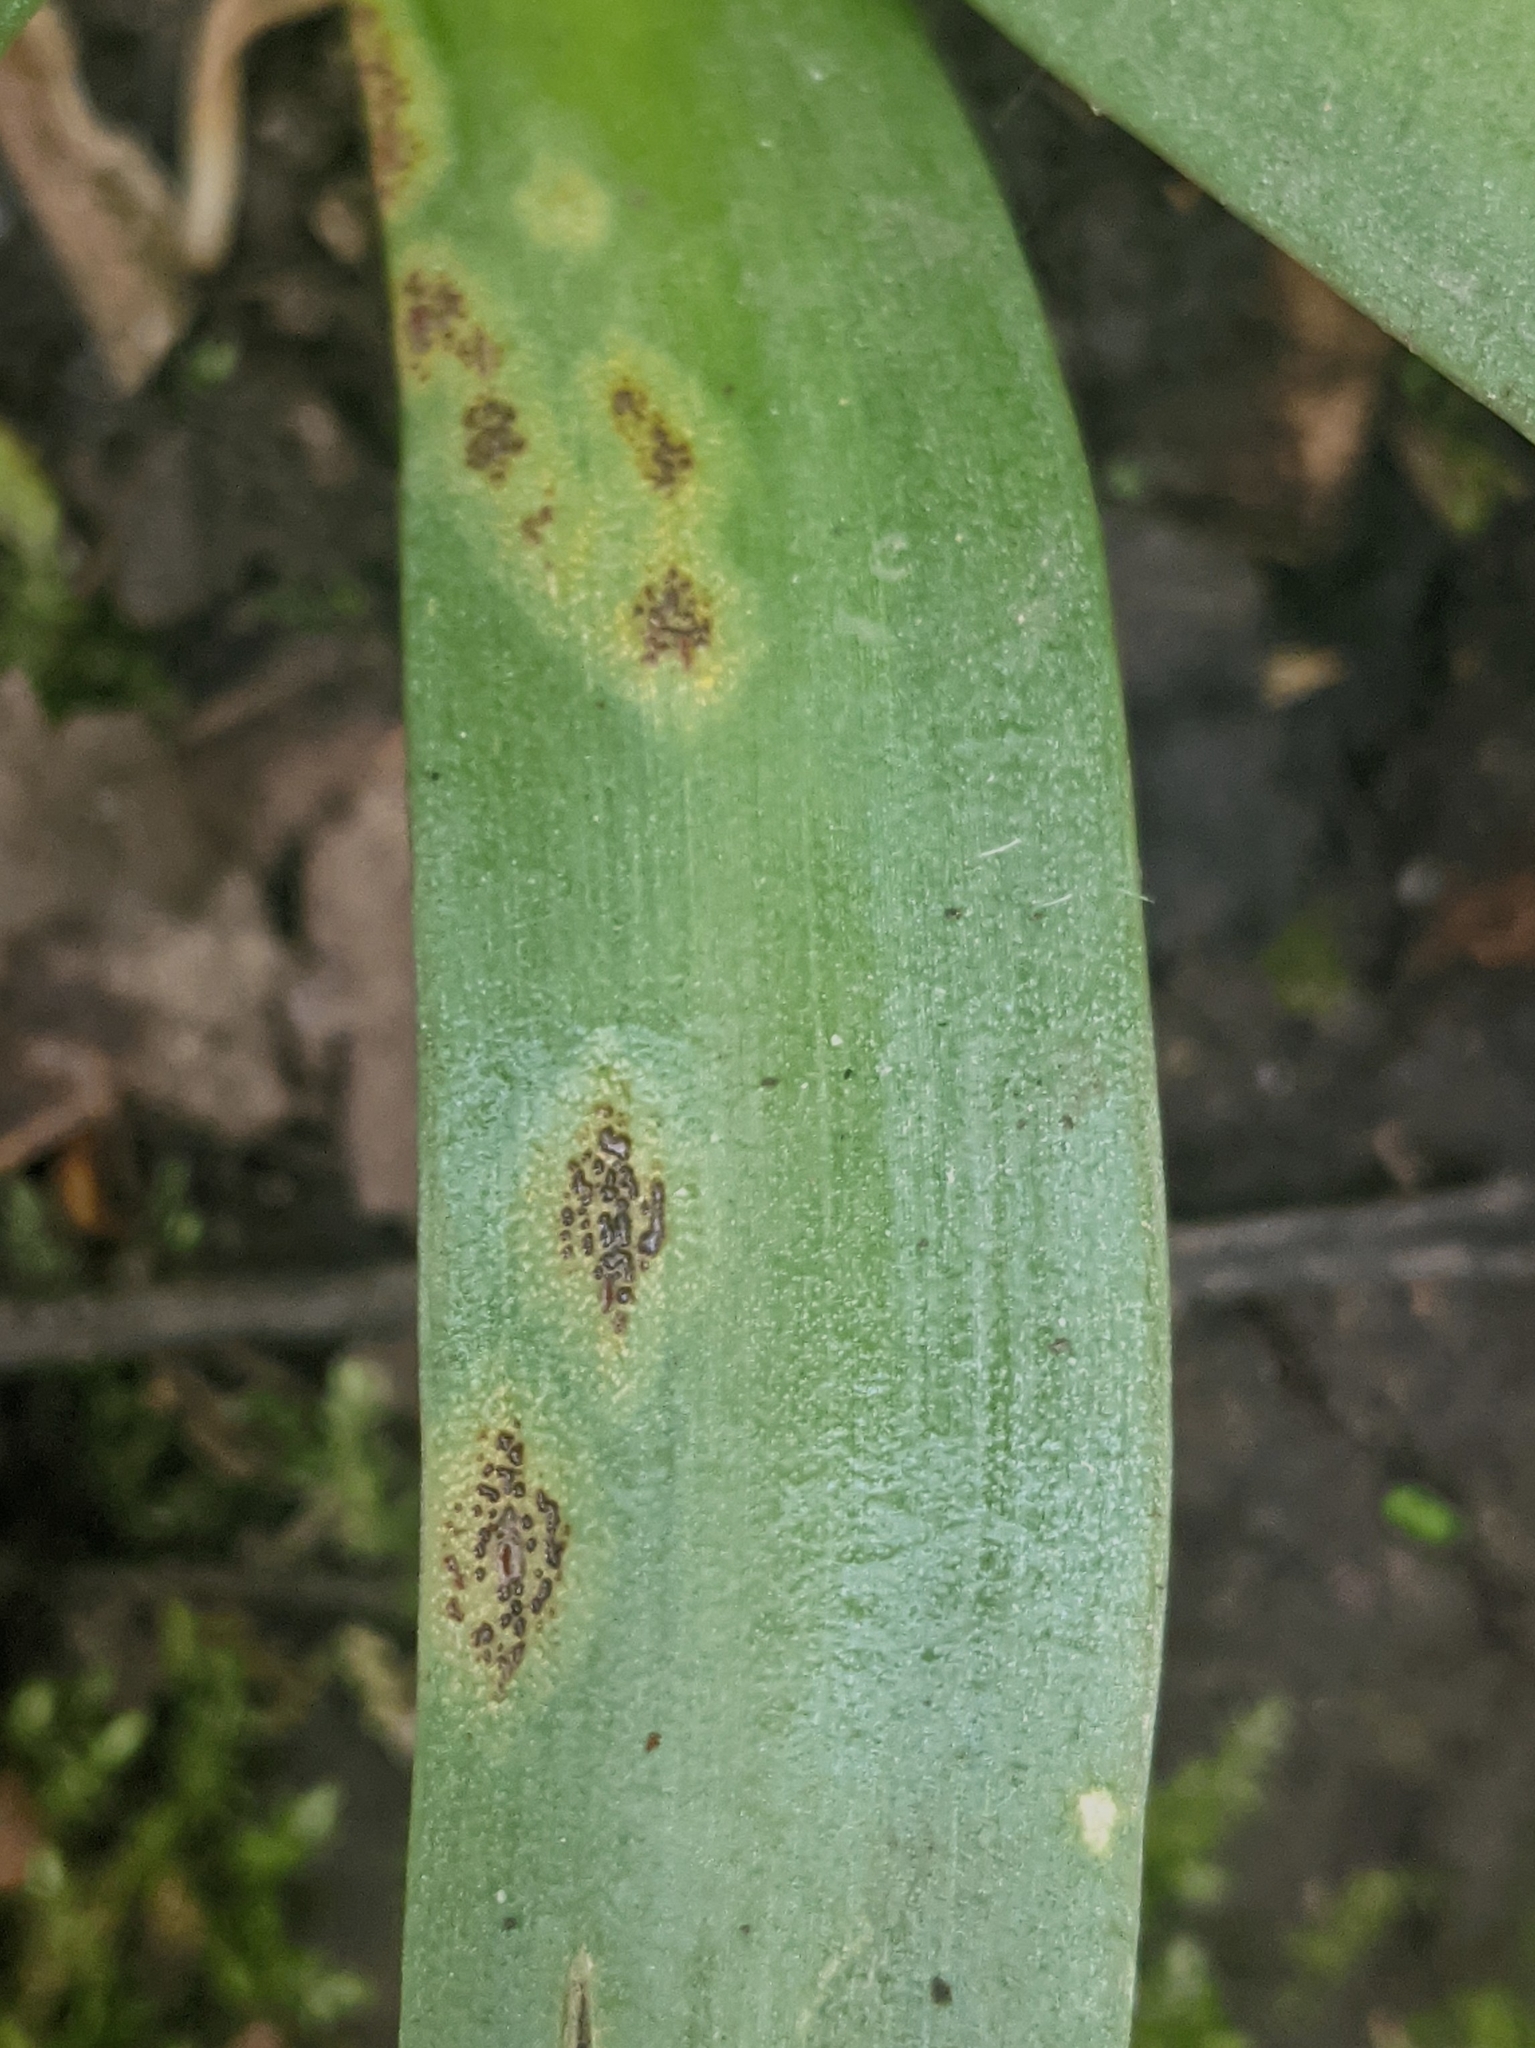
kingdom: Fungi
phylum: Basidiomycota
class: Pucciniomycetes
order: Pucciniales
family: Pucciniaceae
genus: Uromyces
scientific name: Uromyces hyacinthi
